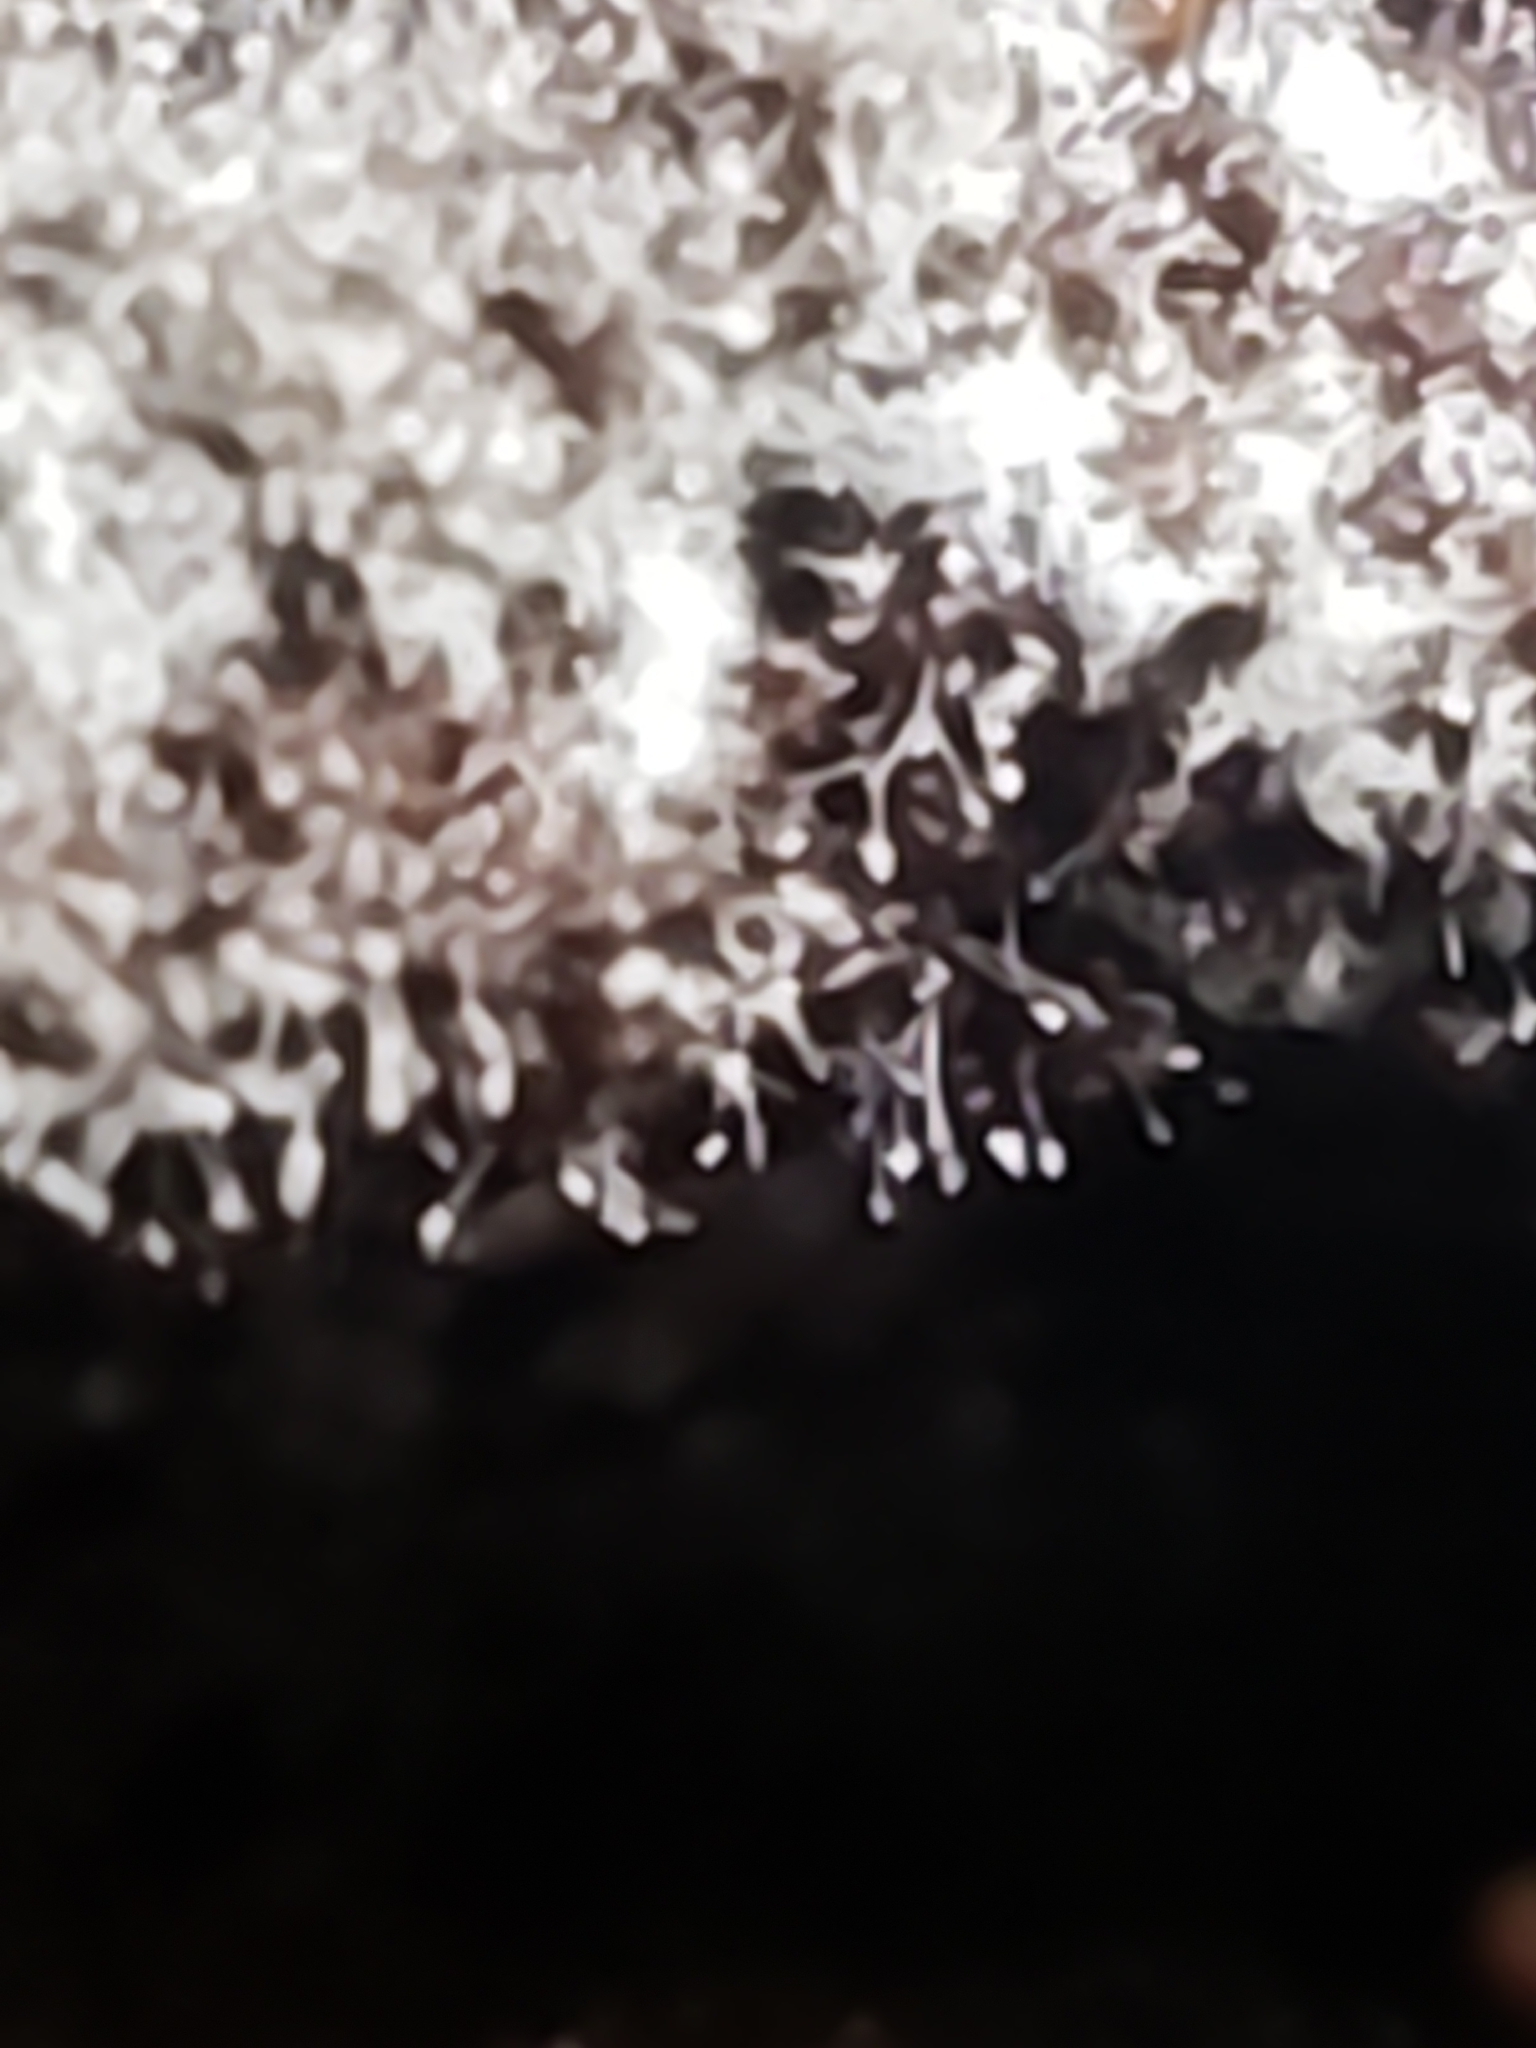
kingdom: Fungi
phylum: Ascomycota
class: Sordariomycetes
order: Hypocreales
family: Nectriaceae
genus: Mariannaea
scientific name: Mariannaea elegans
